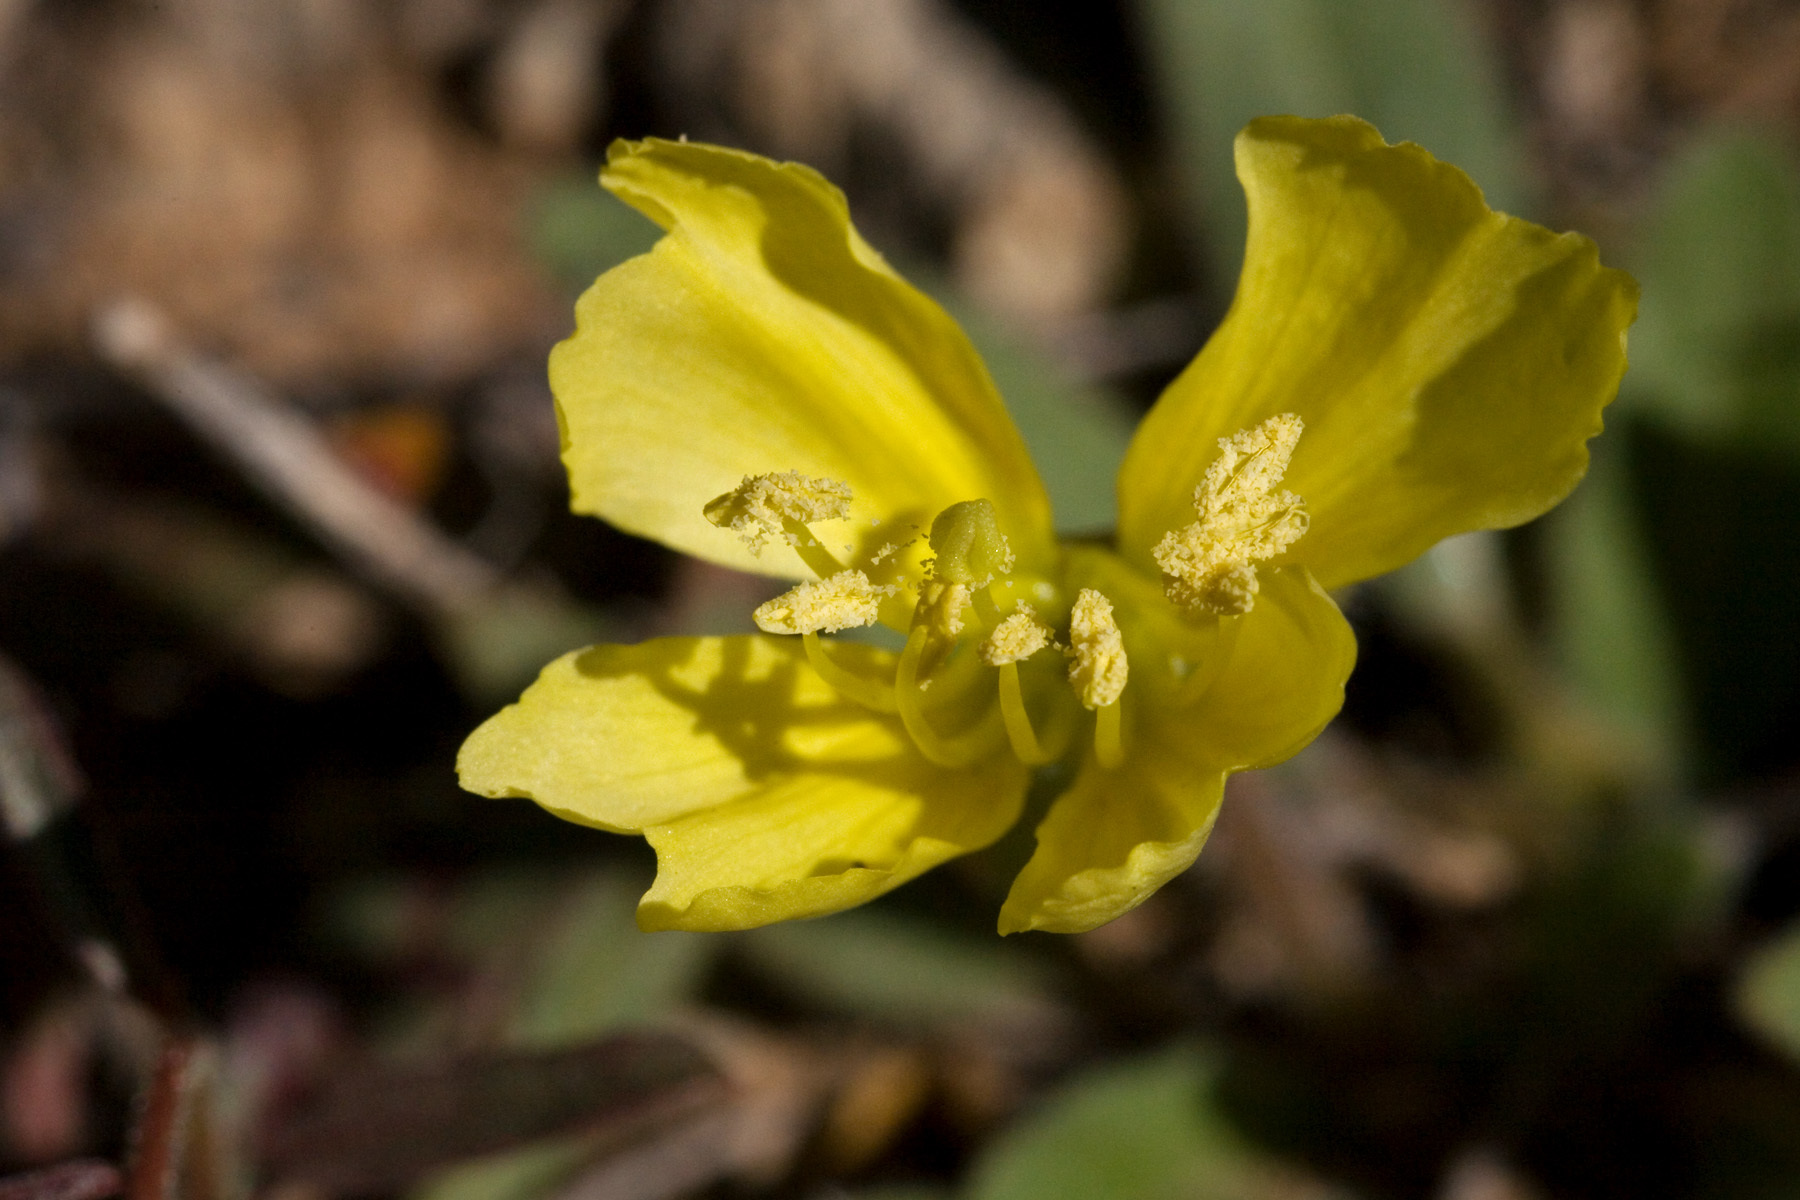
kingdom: Plantae
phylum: Tracheophyta
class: Magnoliopsida
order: Myrtales
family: Onagraceae
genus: Oenothera
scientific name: Oenothera primiveris
